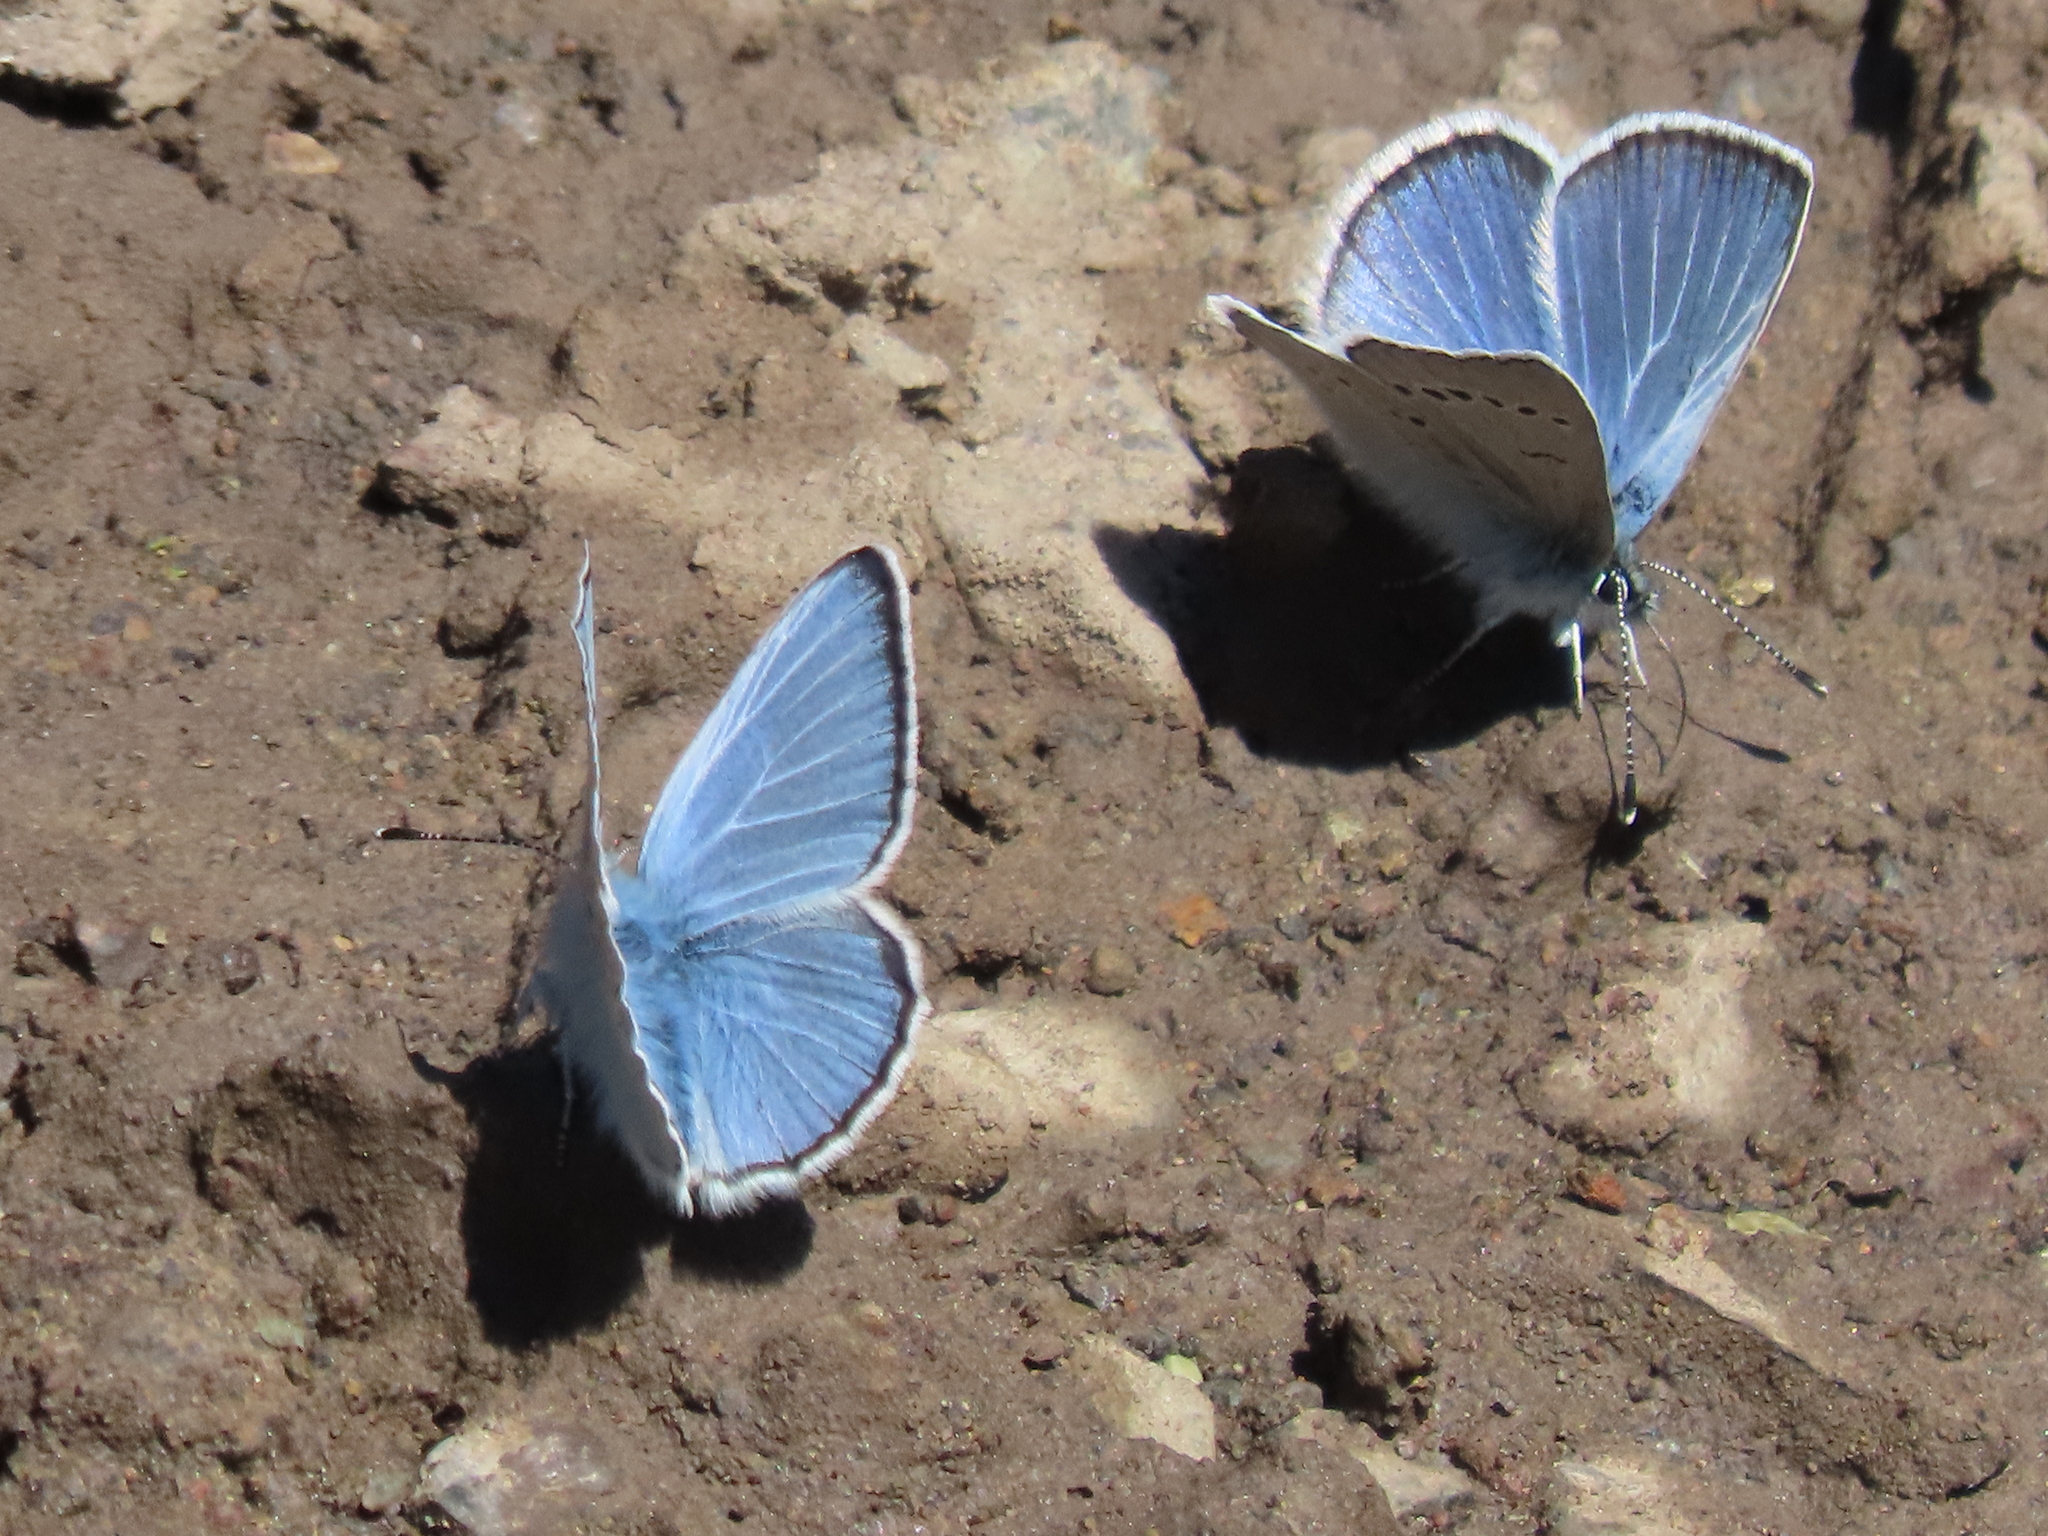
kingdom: Animalia
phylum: Arthropoda
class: Insecta
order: Lepidoptera
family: Lycaenidae
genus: Glaucopsyche
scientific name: Glaucopsyche lygdamus
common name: Silvery blue
